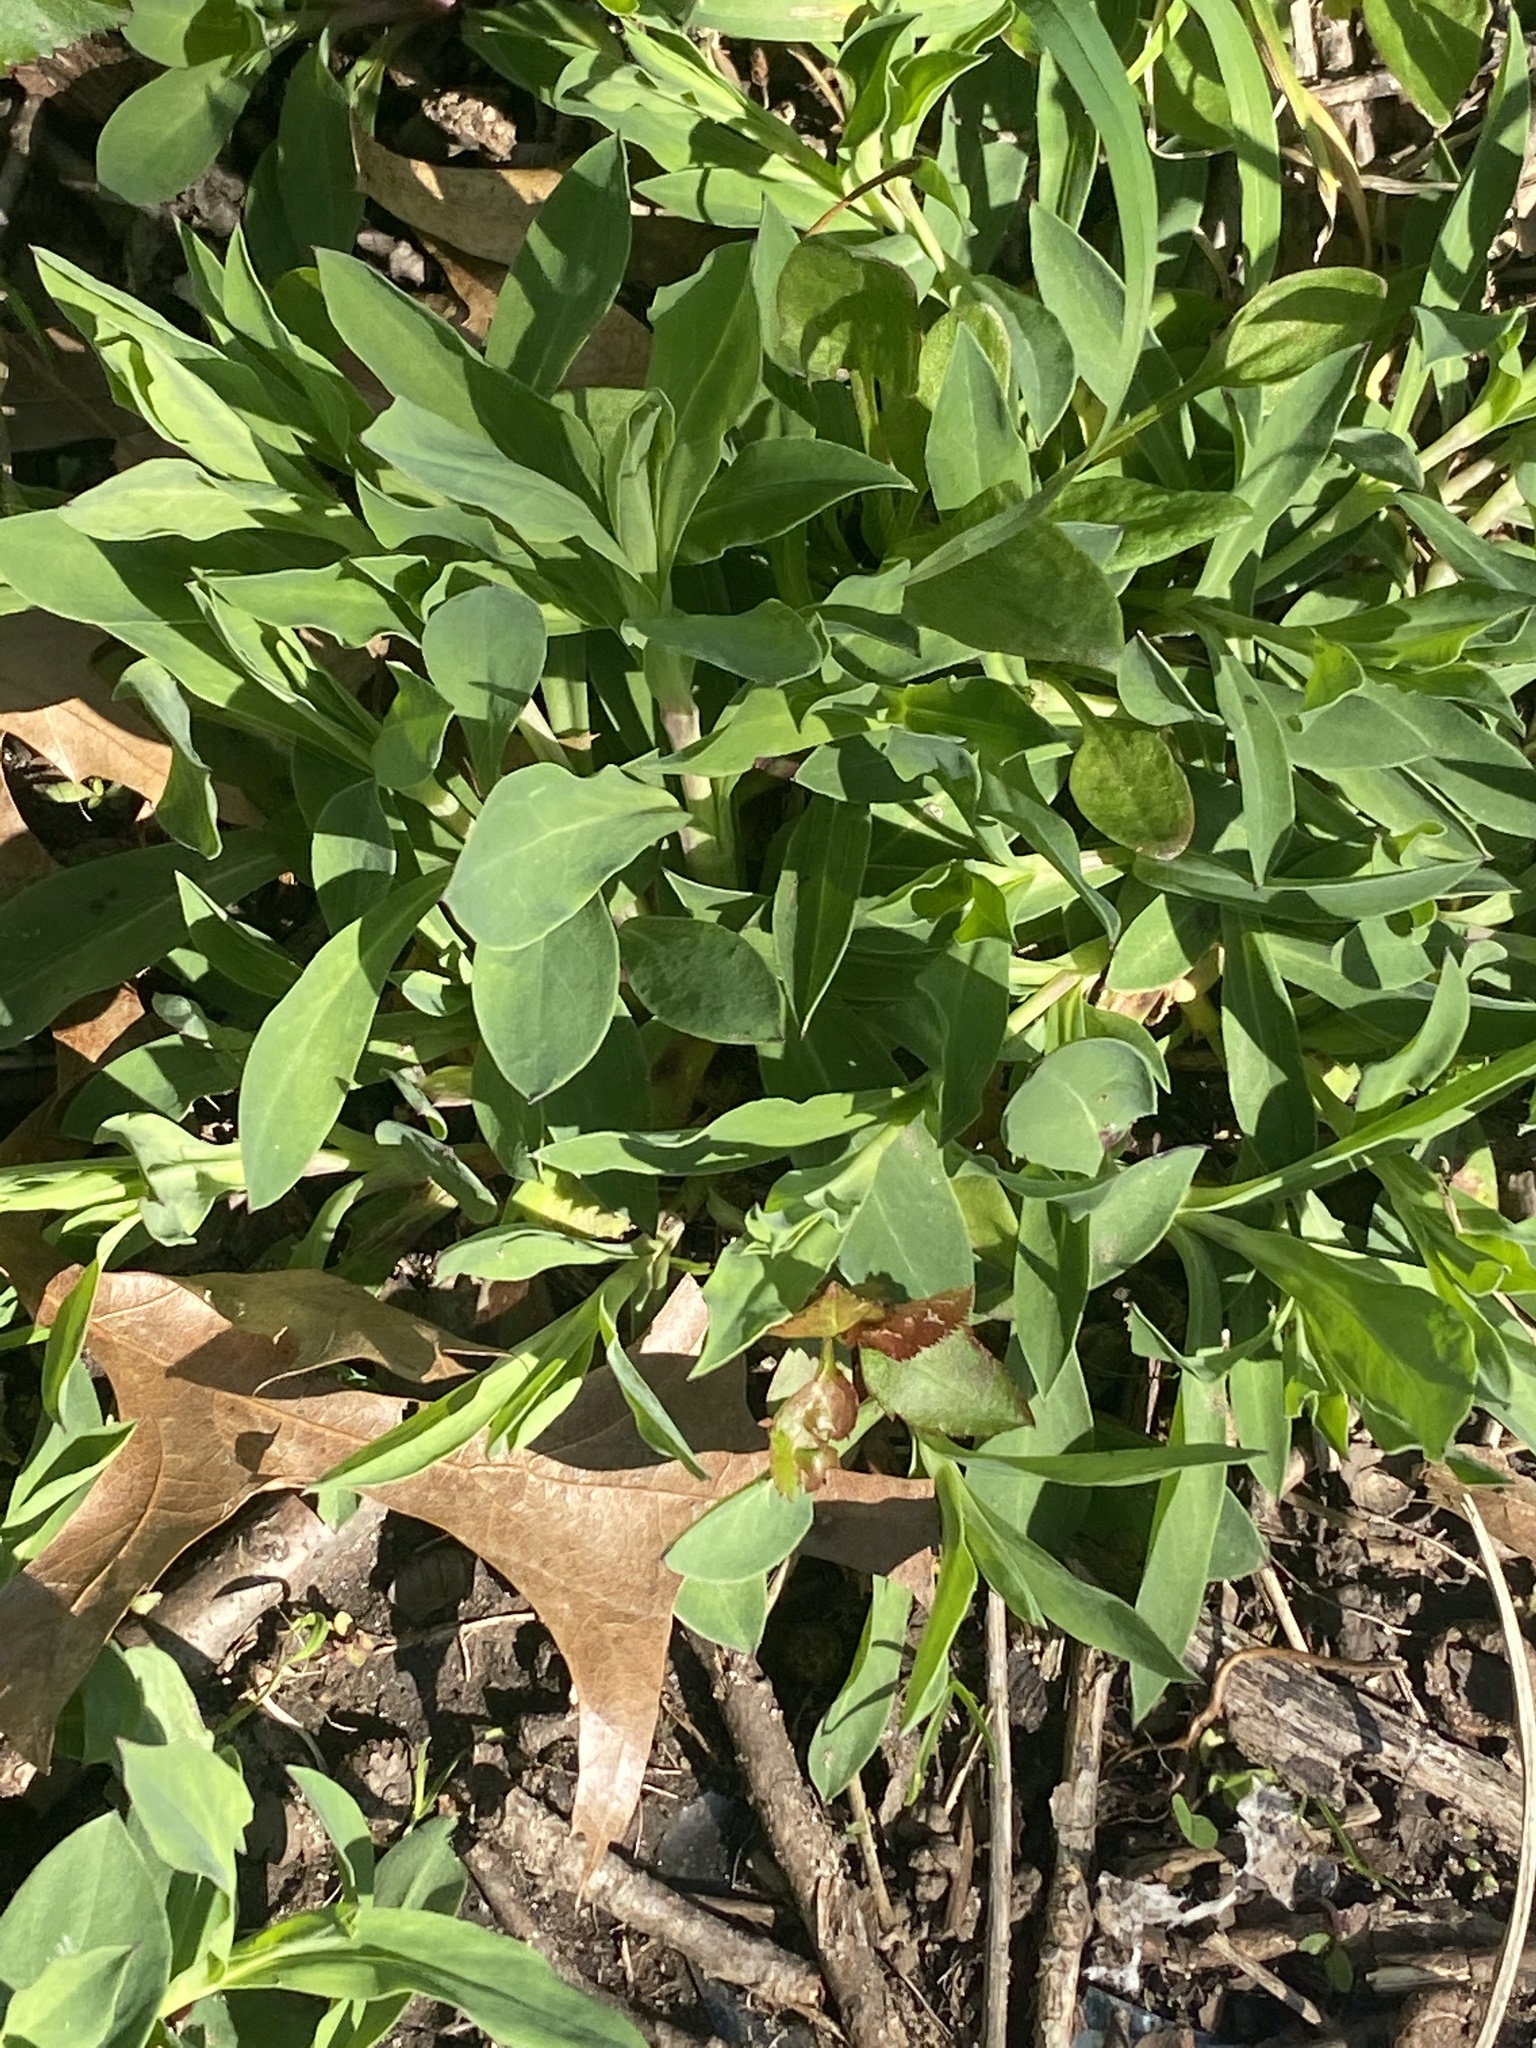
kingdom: Plantae
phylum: Tracheophyta
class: Magnoliopsida
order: Caryophyllales
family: Caryophyllaceae
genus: Silene
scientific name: Silene vulgaris
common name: Bladder campion
